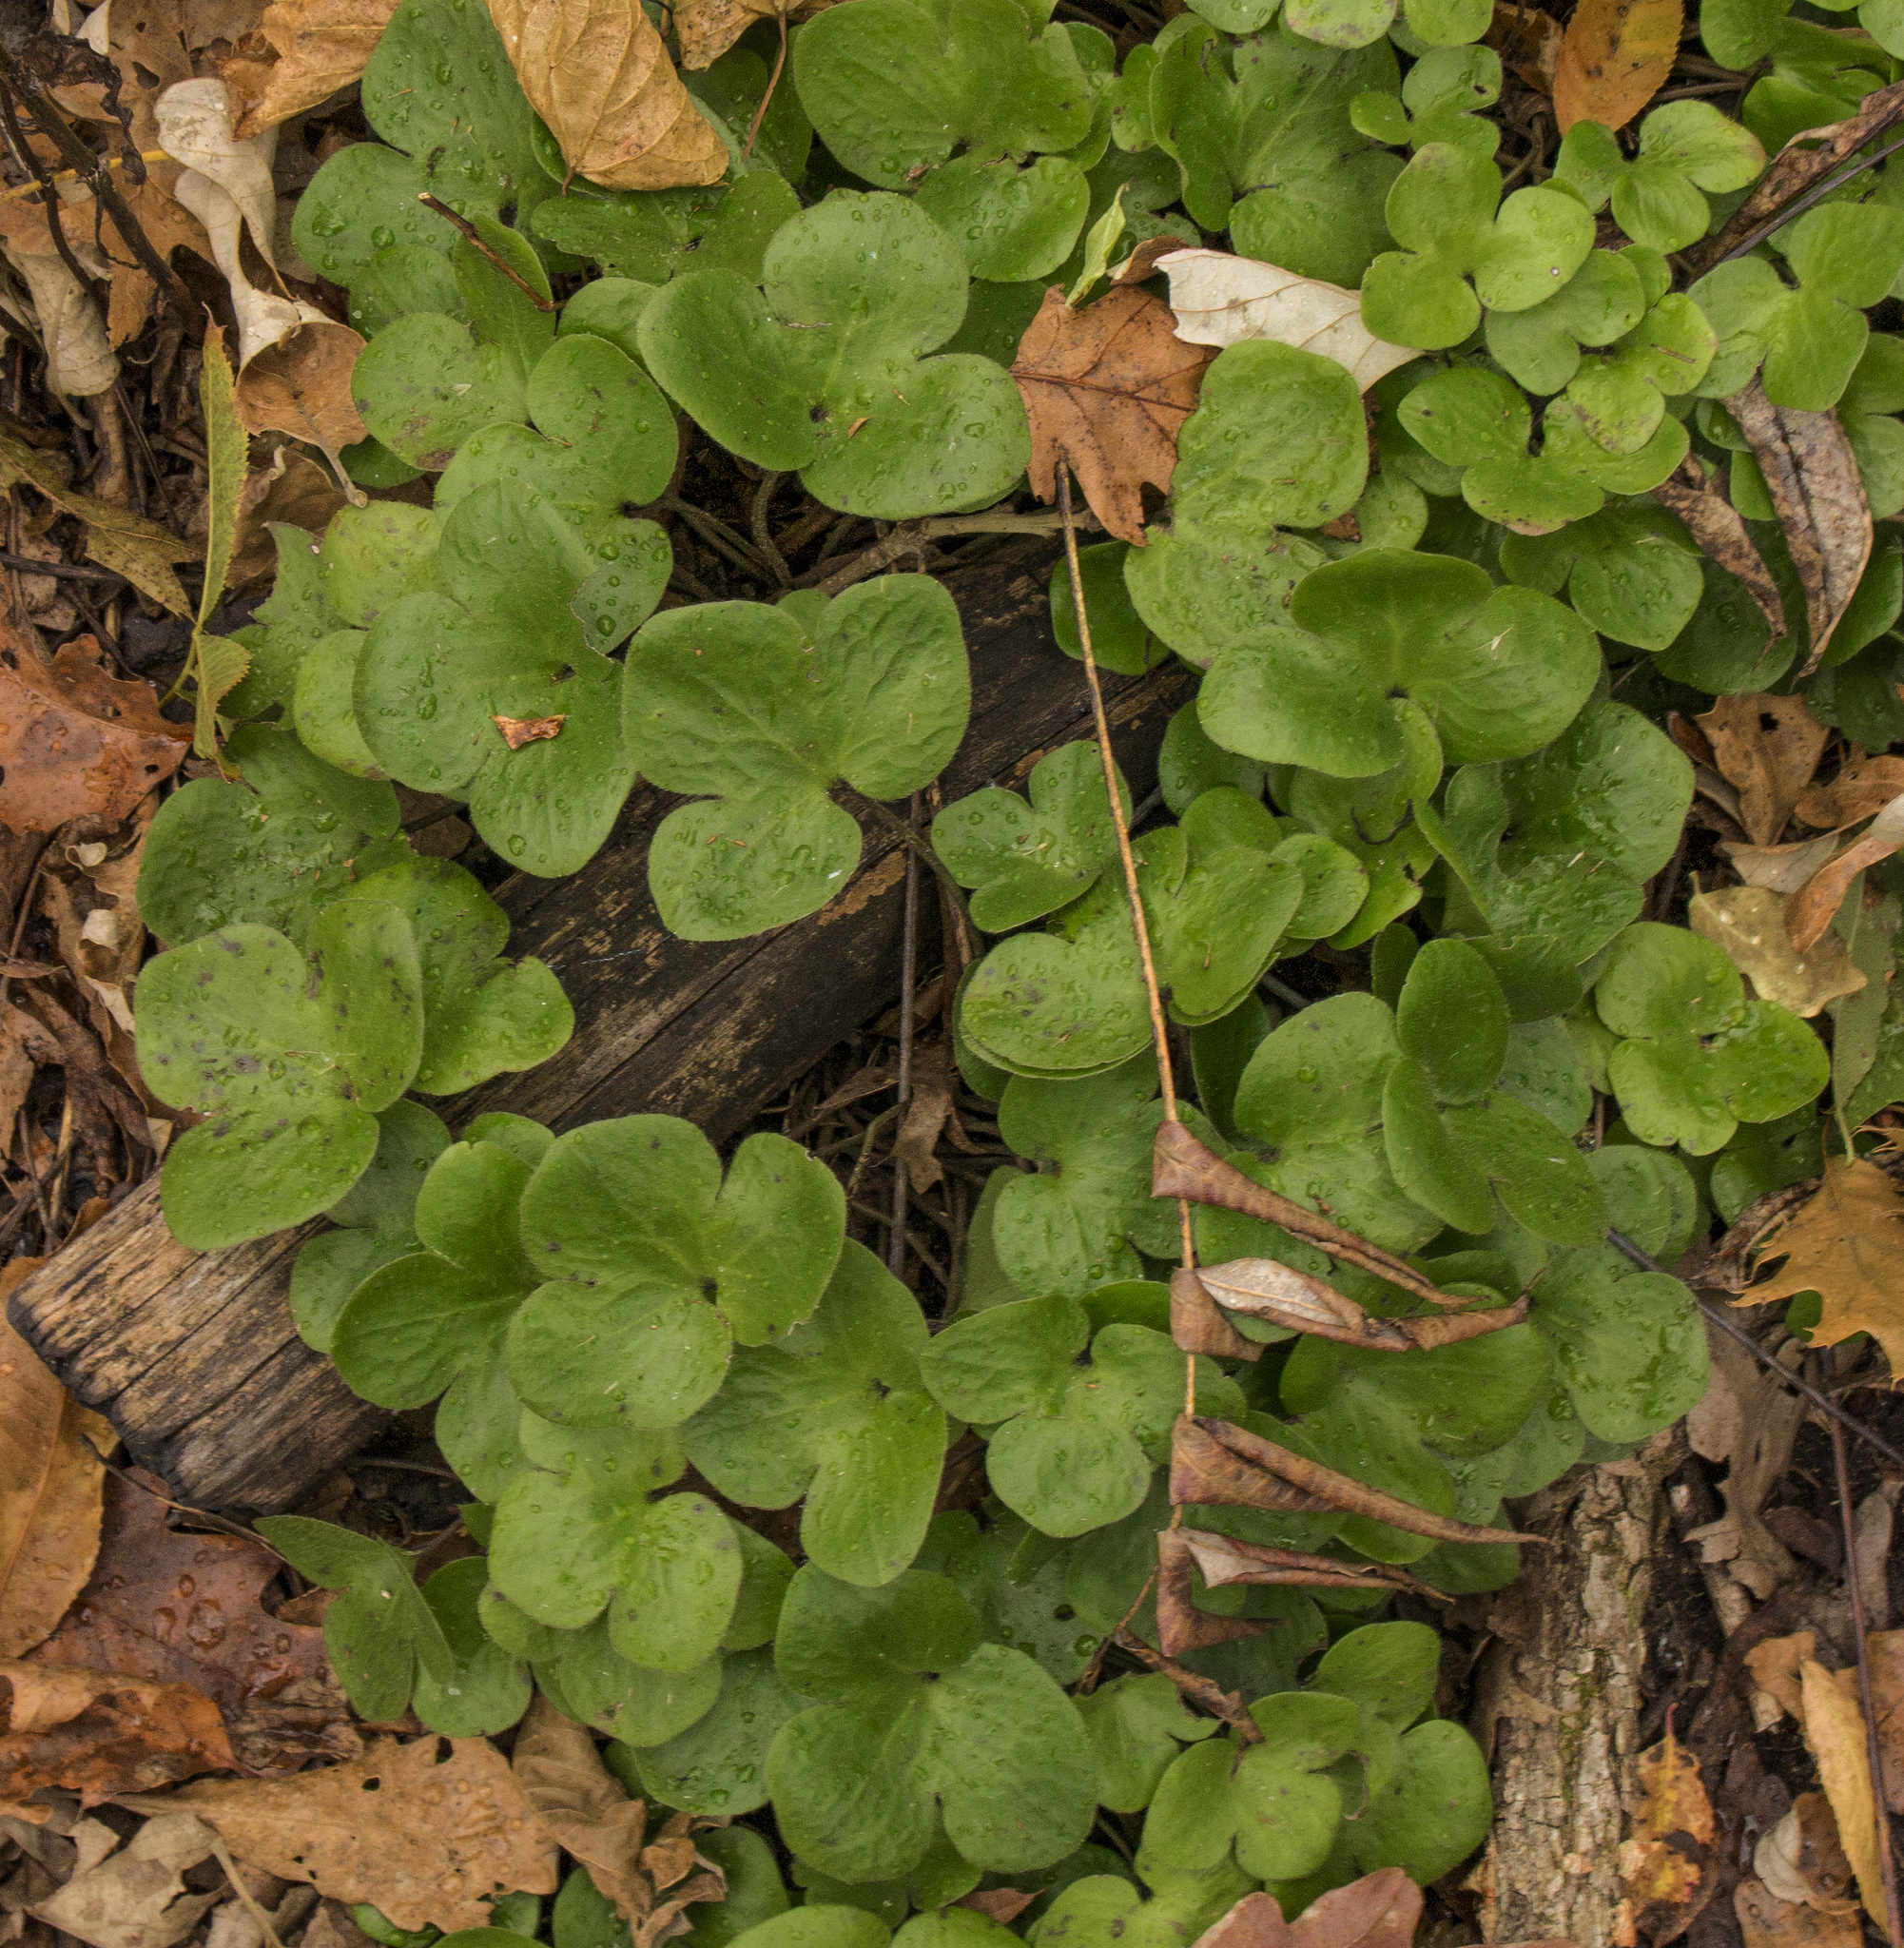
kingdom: Plantae
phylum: Tracheophyta
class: Magnoliopsida
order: Ranunculales
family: Ranunculaceae
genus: Hepatica
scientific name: Hepatica americana
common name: American hepatica
